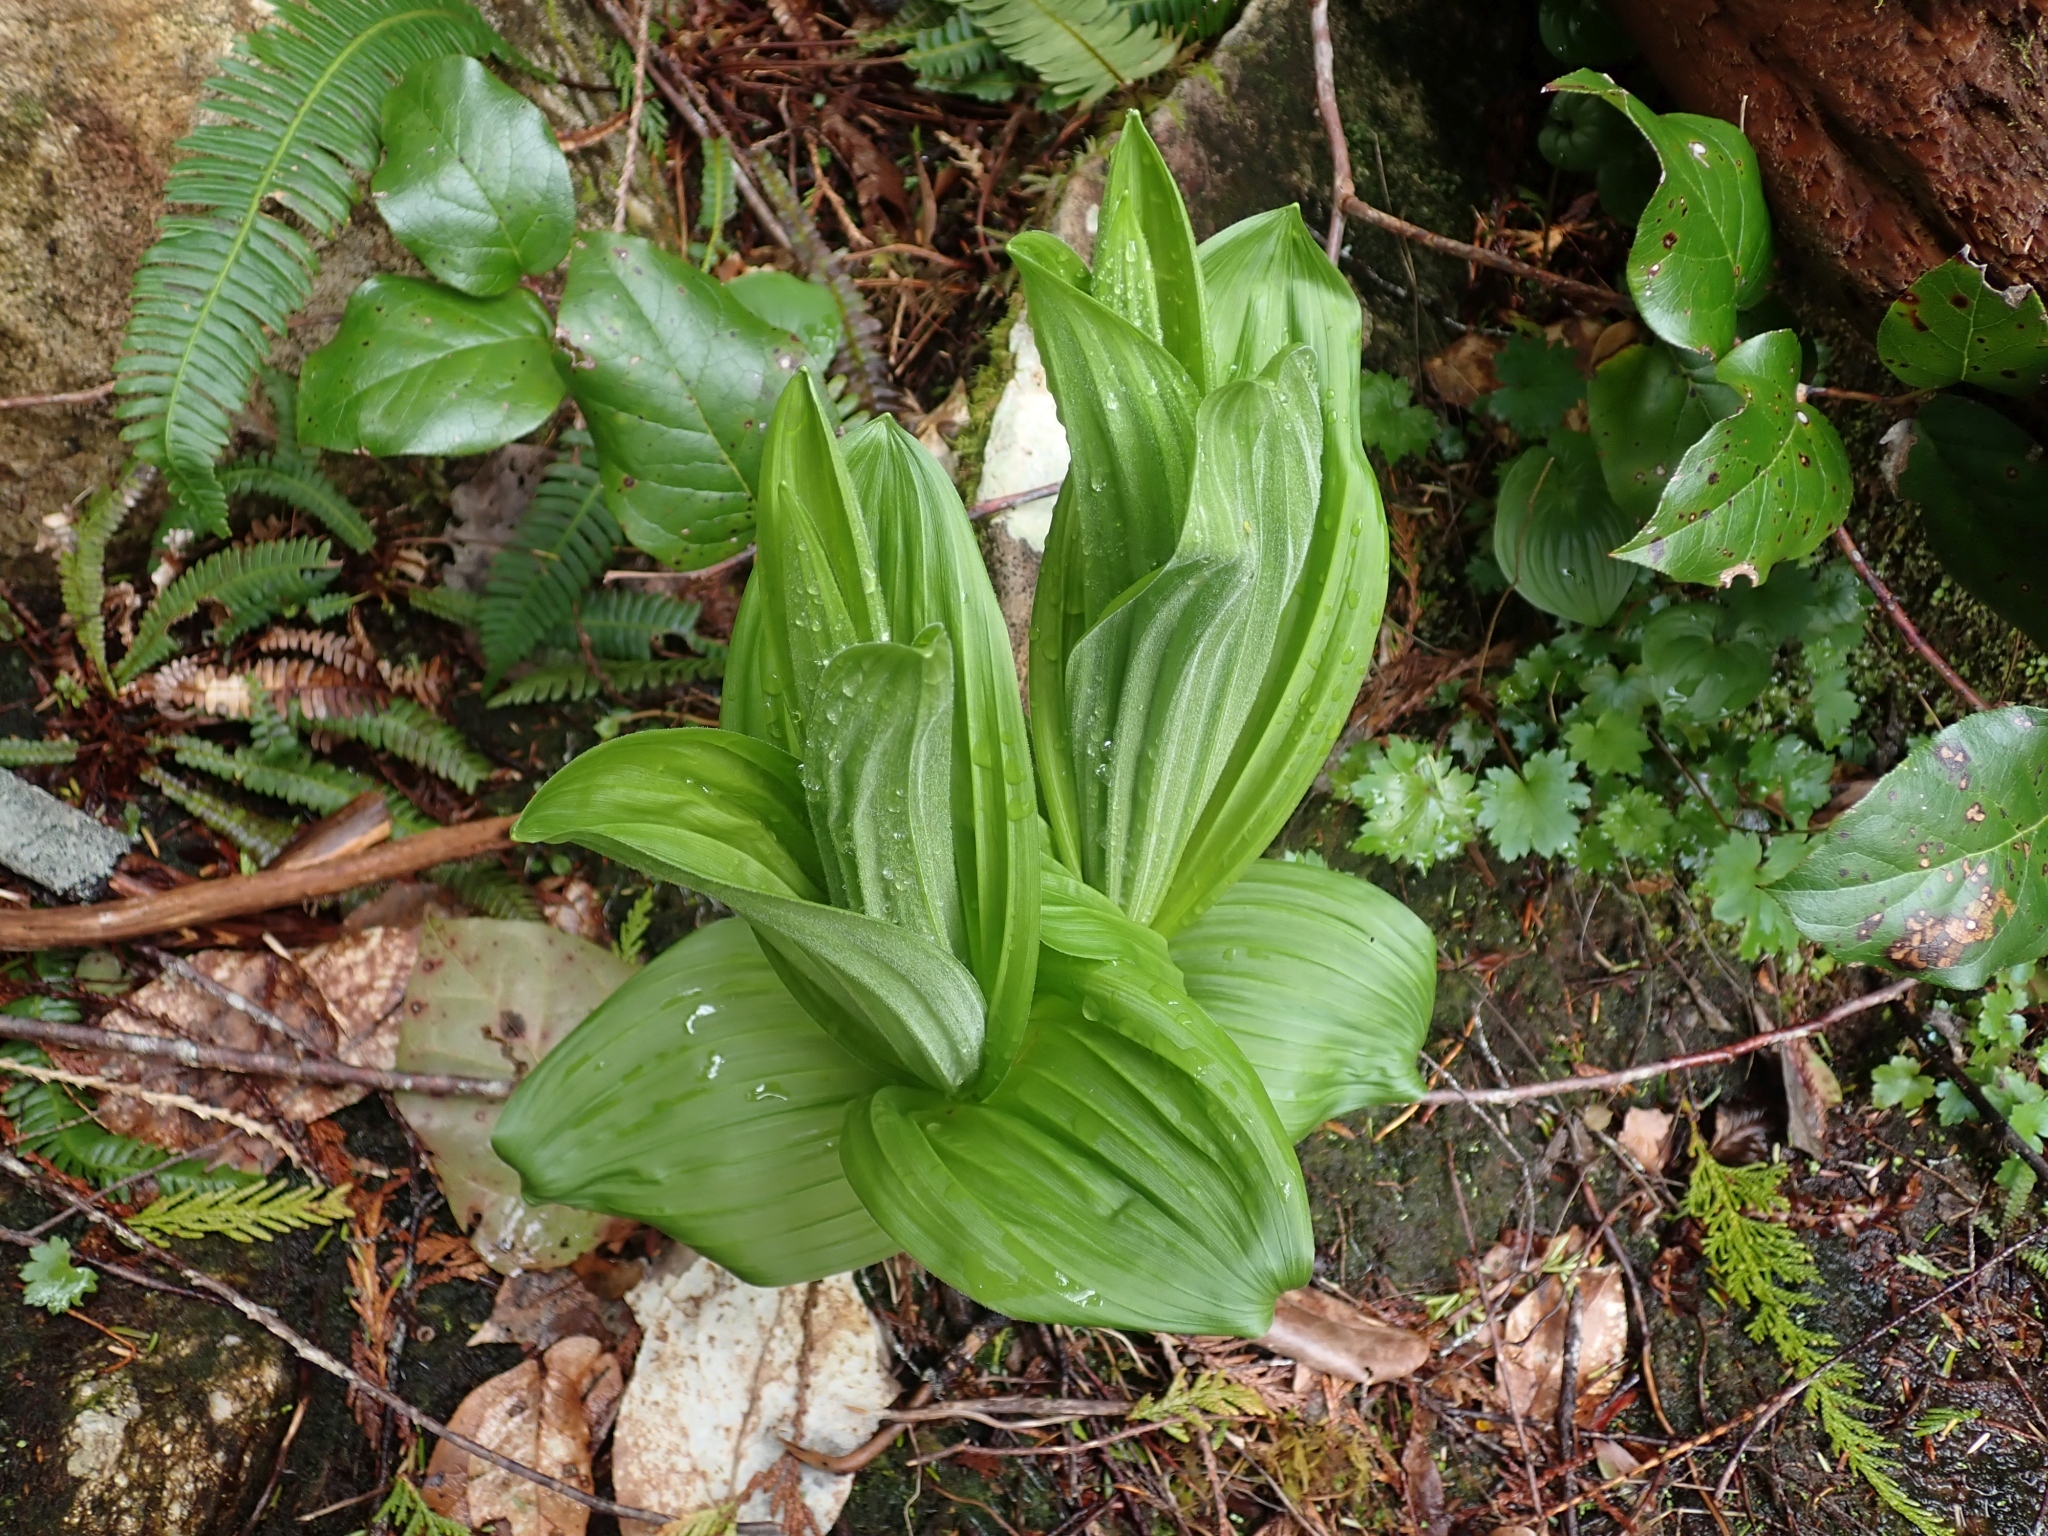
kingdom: Plantae
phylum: Tracheophyta
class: Liliopsida
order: Liliales
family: Melanthiaceae
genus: Veratrum
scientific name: Veratrum viride
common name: American false hellebore
